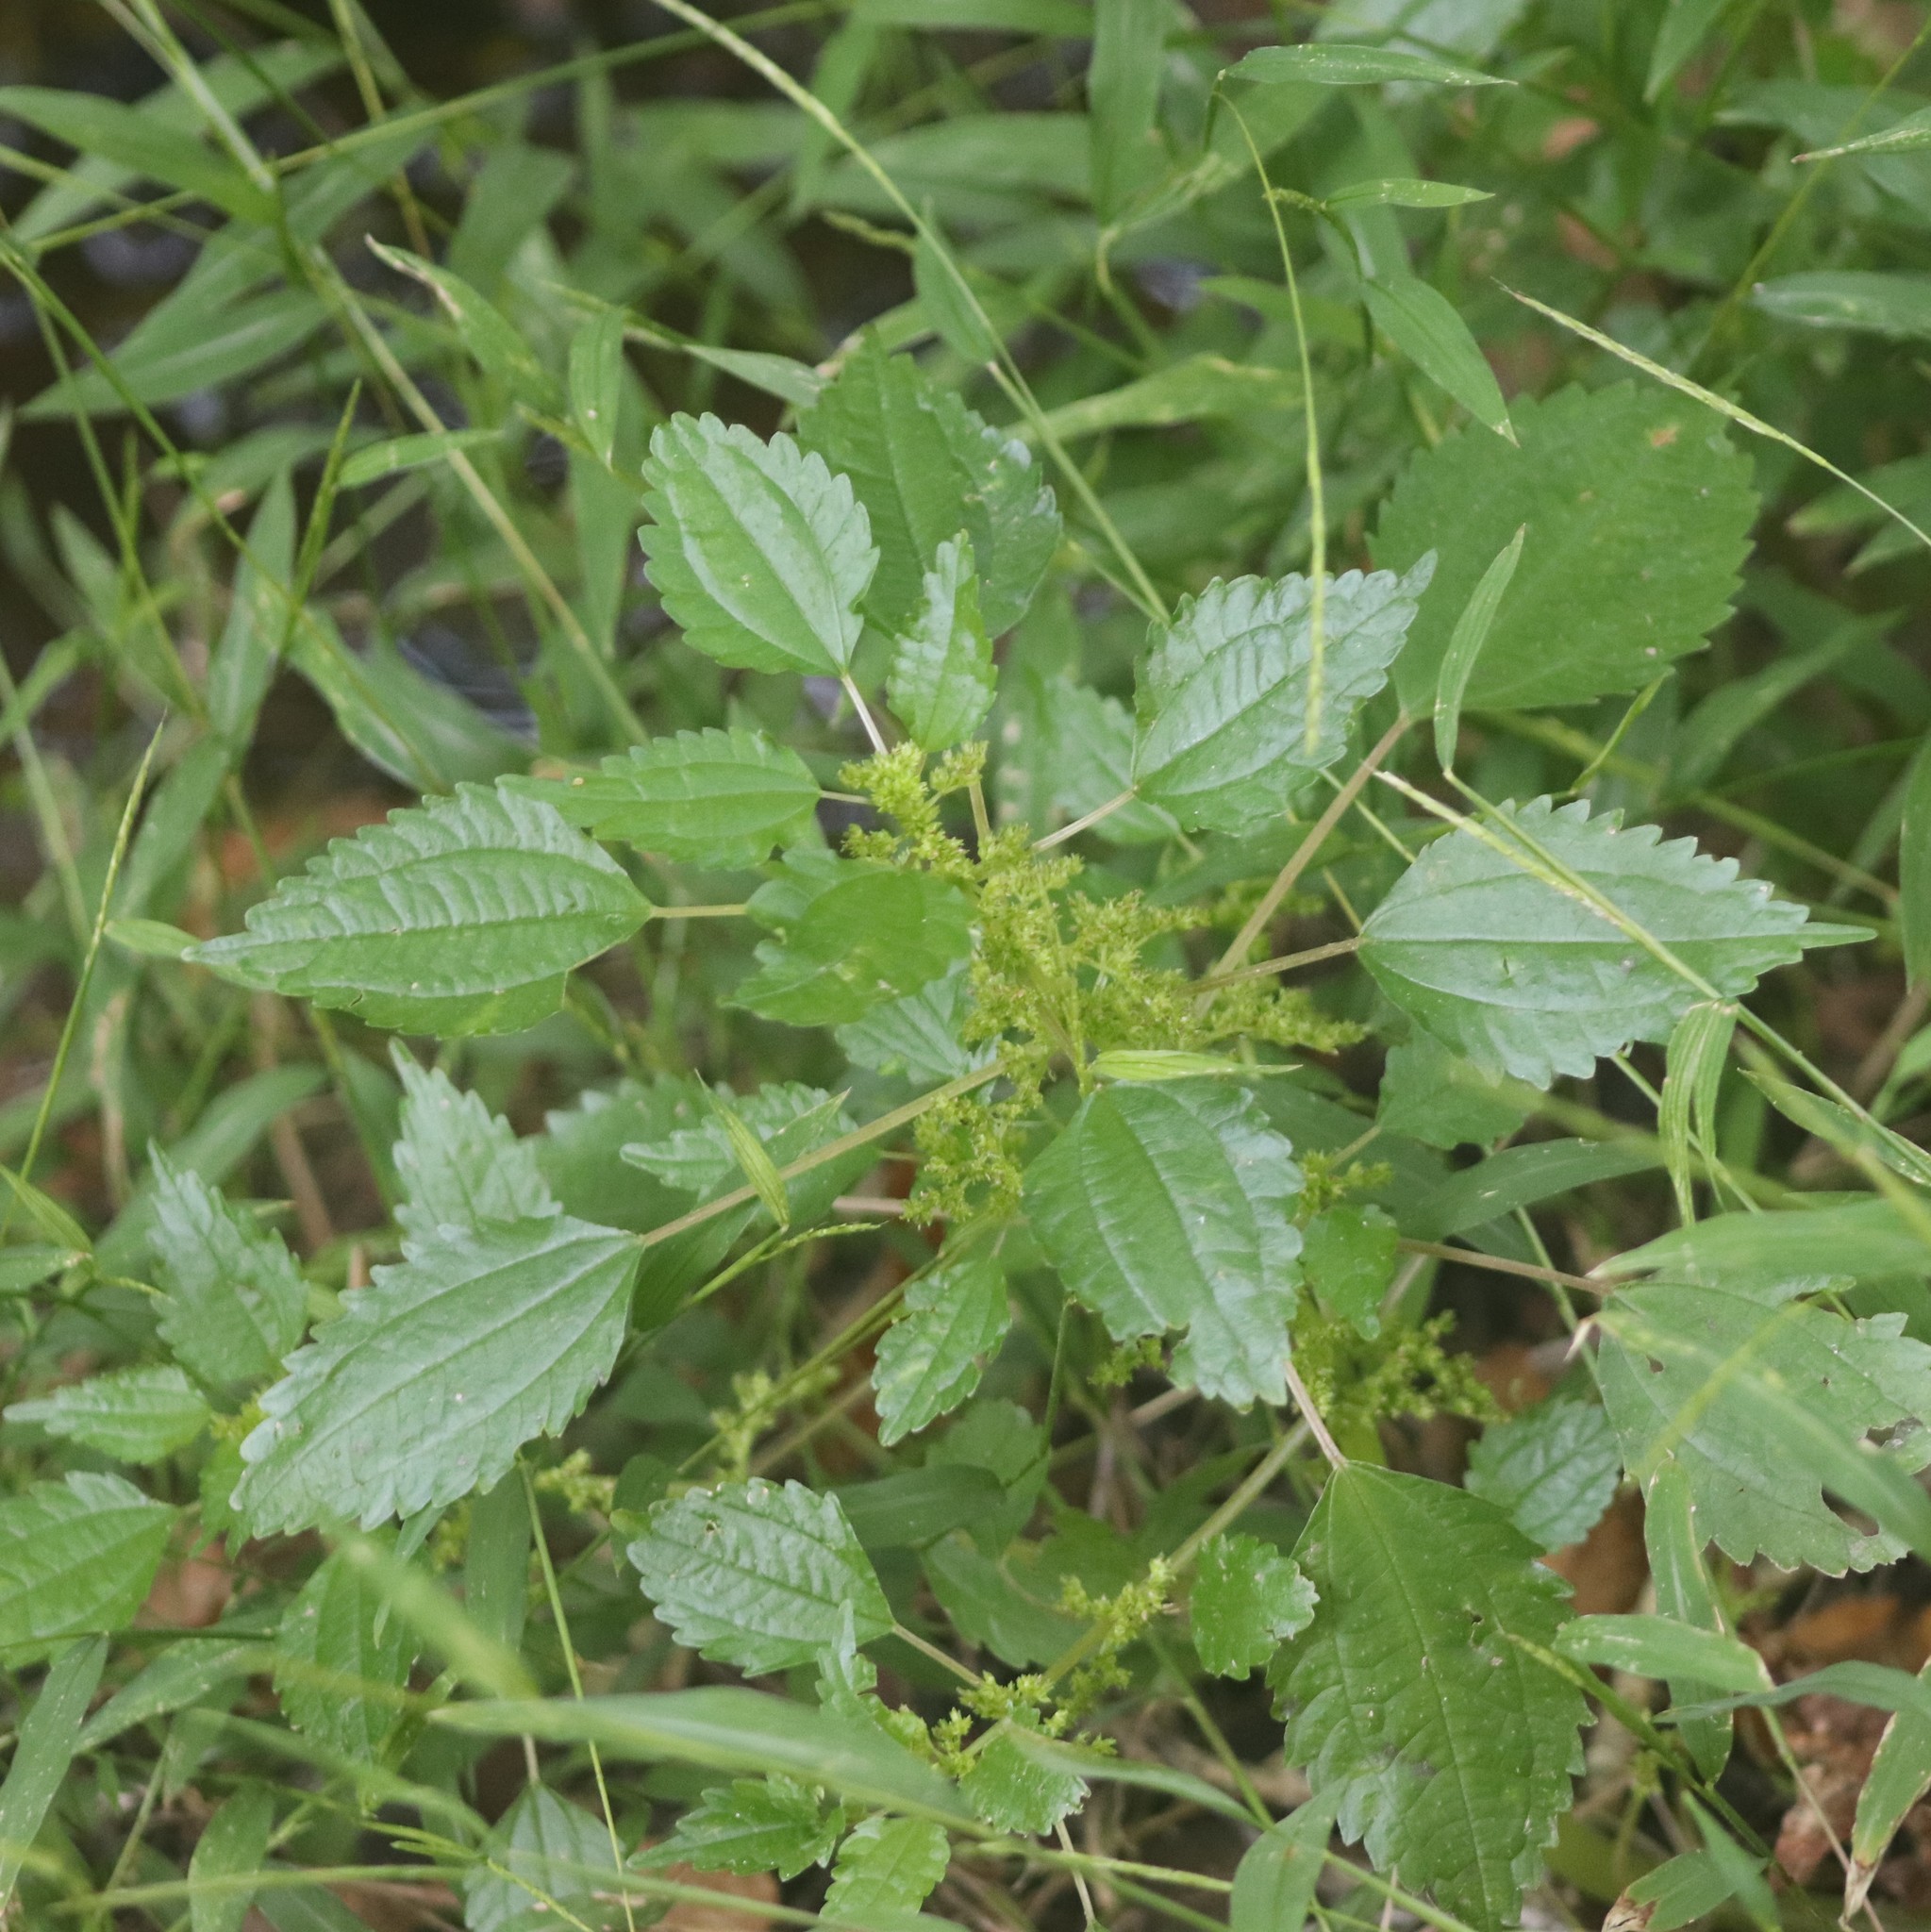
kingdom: Plantae
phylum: Tracheophyta
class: Magnoliopsida
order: Rosales
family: Urticaceae
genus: Pilea
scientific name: Pilea pumila
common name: Clearweed
